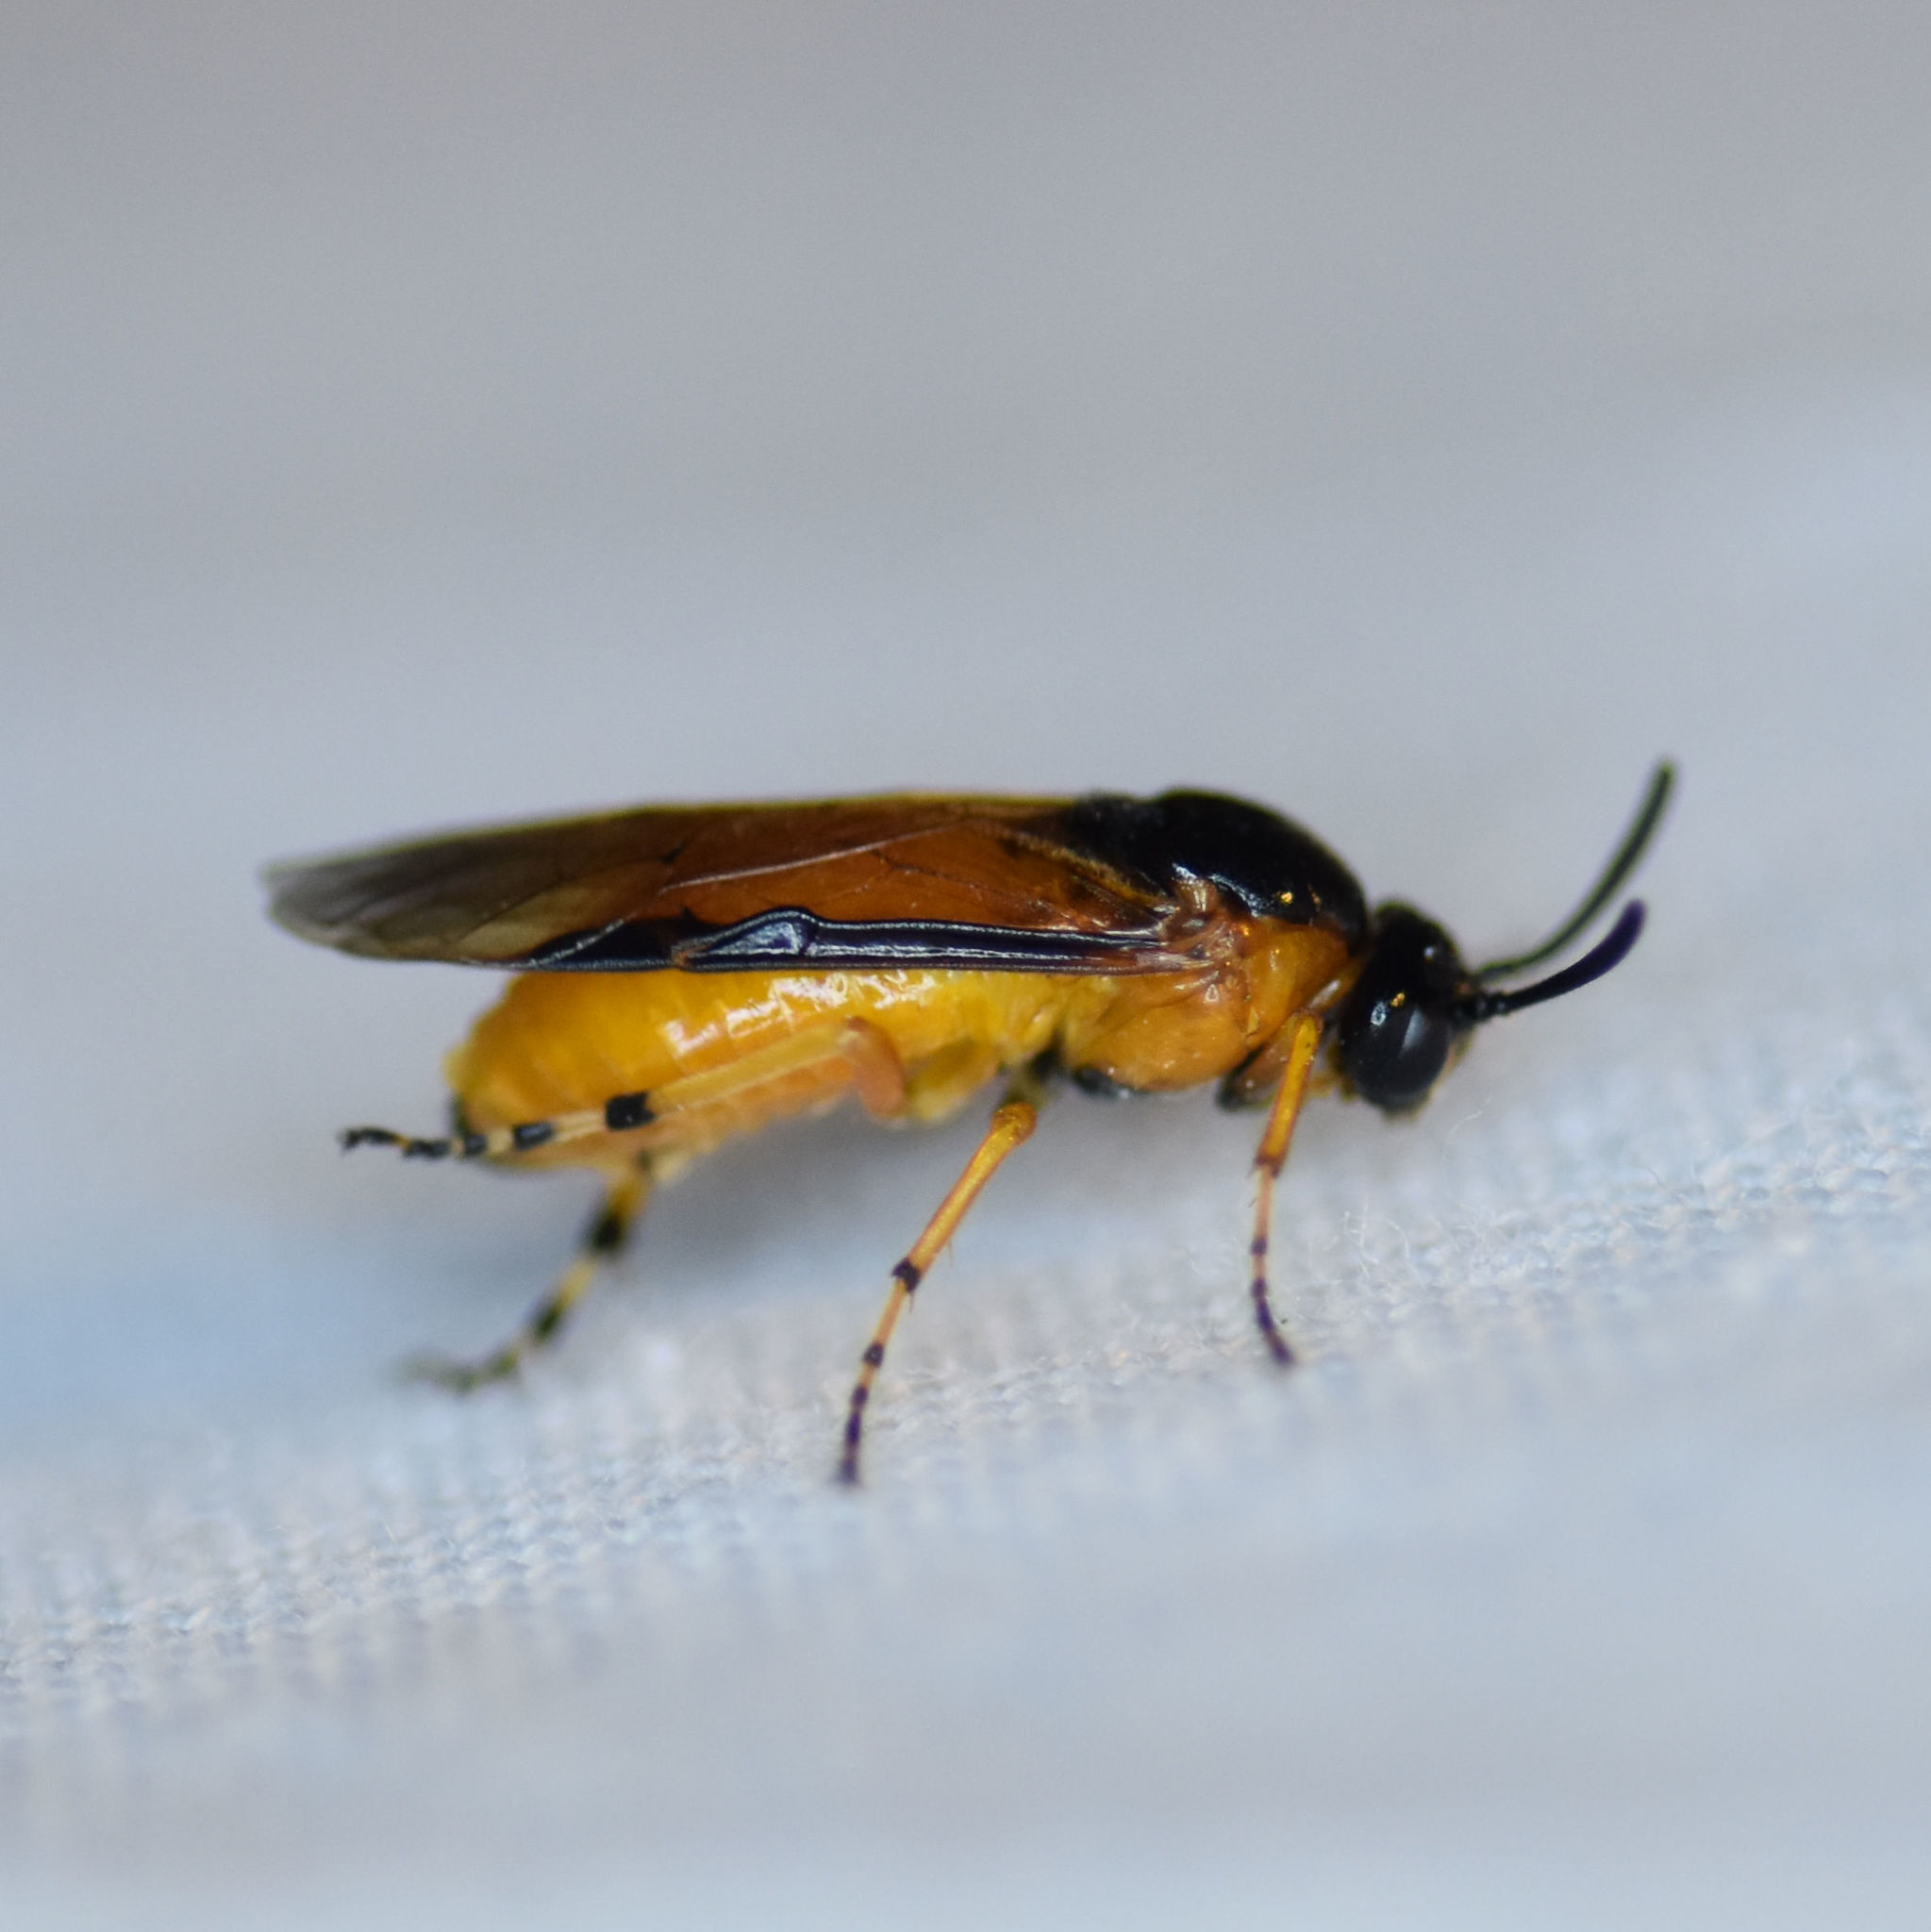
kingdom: Animalia
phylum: Arthropoda
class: Insecta
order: Hymenoptera
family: Argidae
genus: Arge
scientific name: Arge ochropus
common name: Argid sawfly
